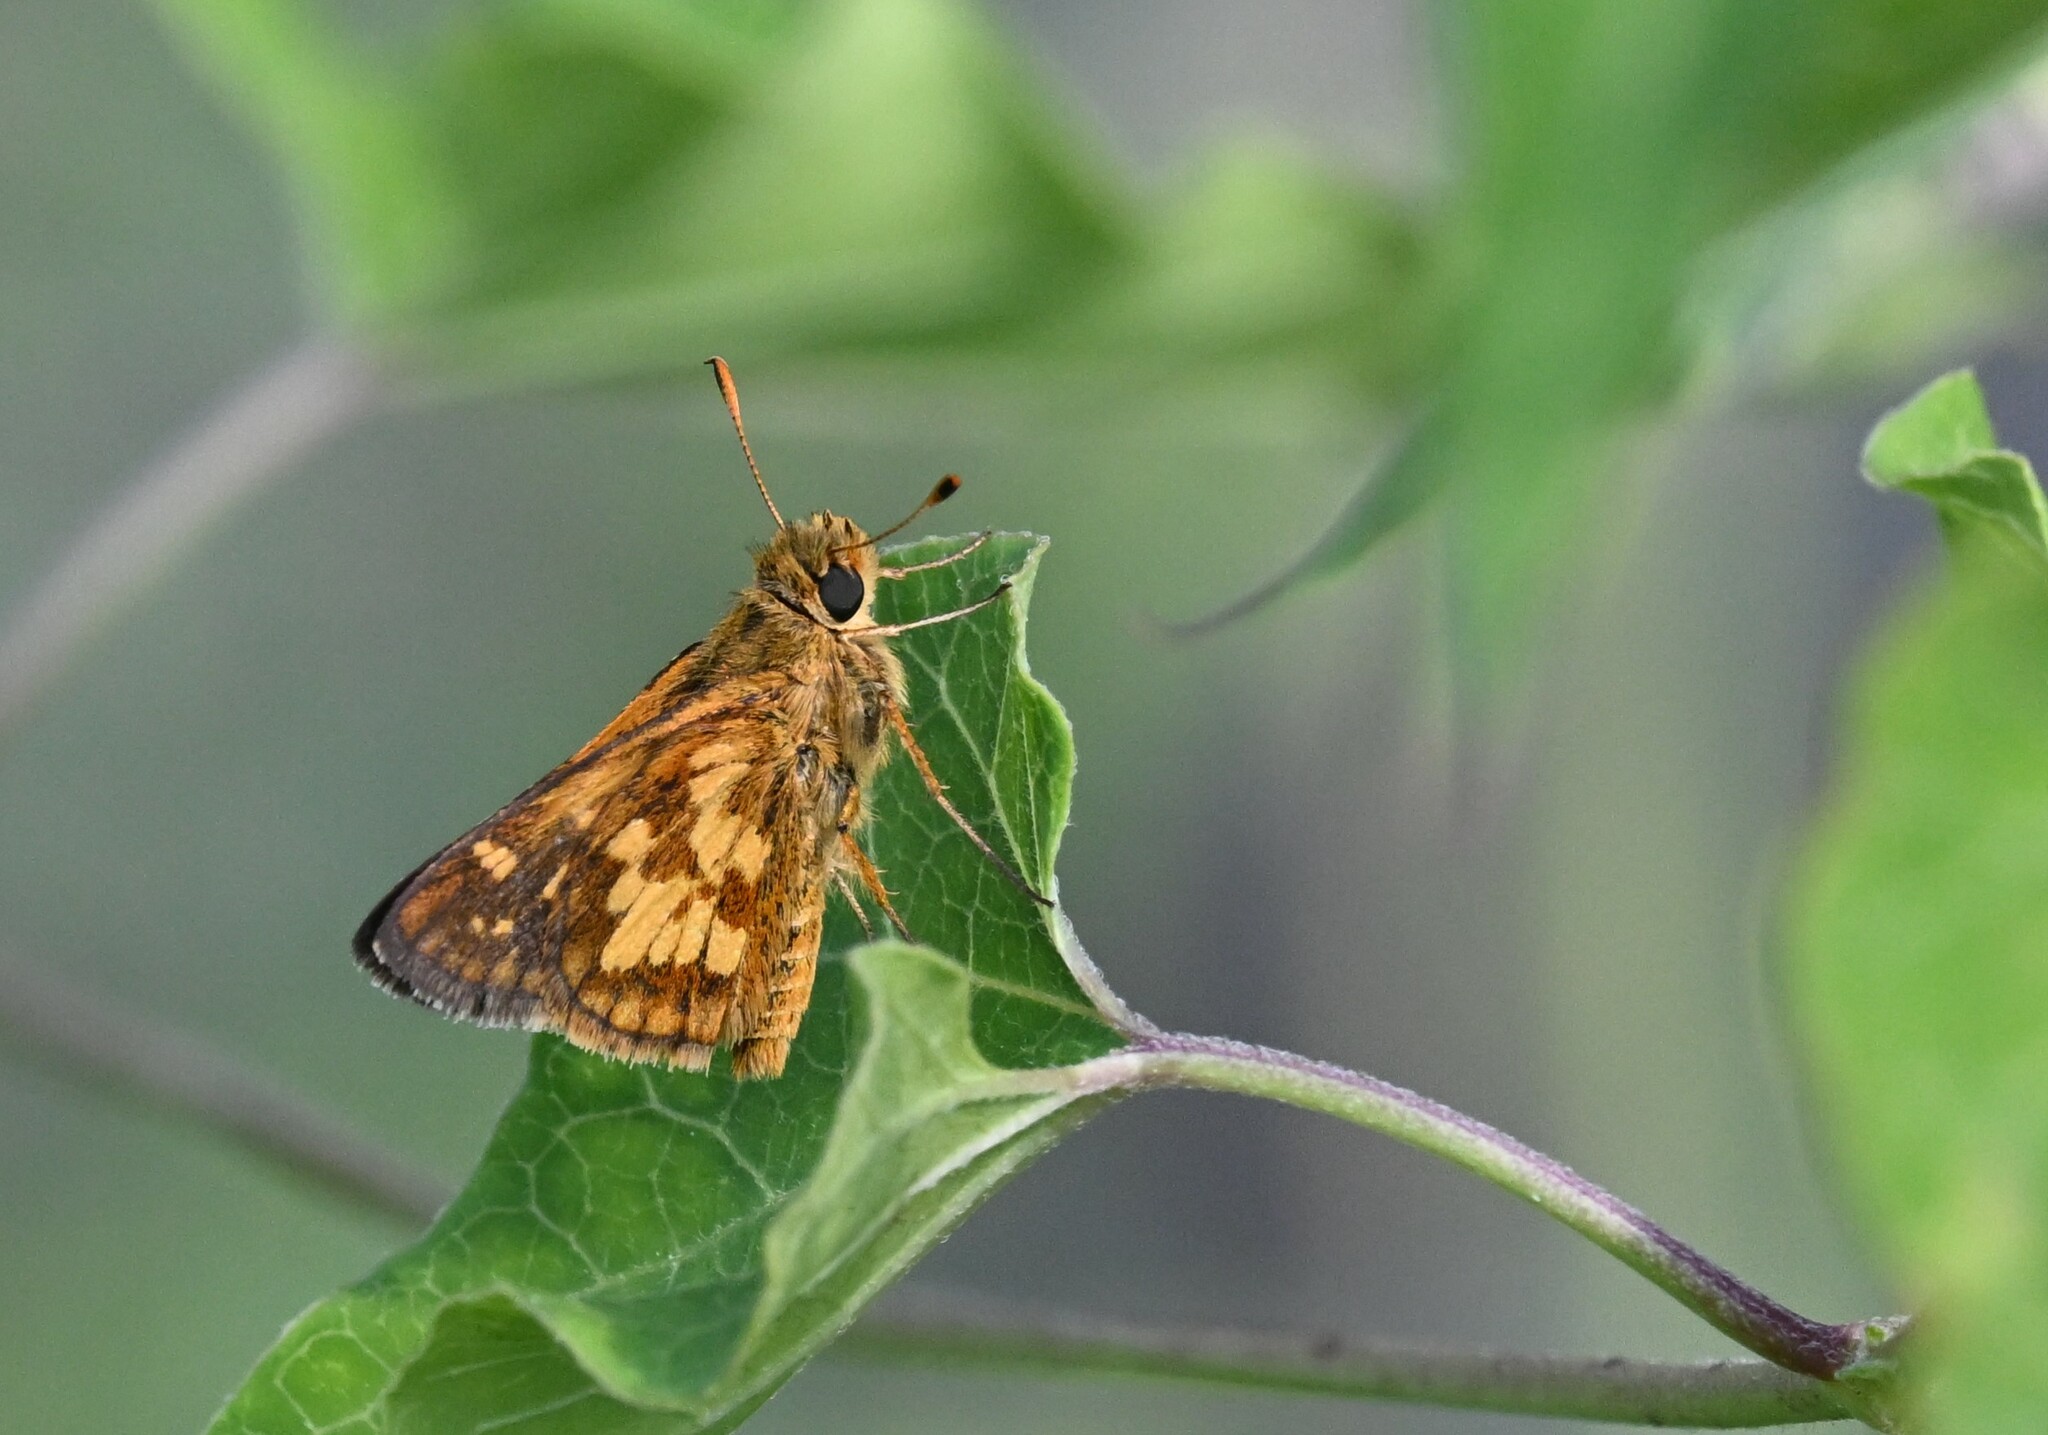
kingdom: Animalia
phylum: Arthropoda
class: Insecta
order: Lepidoptera
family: Hesperiidae
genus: Polites
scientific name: Polites coras
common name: Peck's skipper
